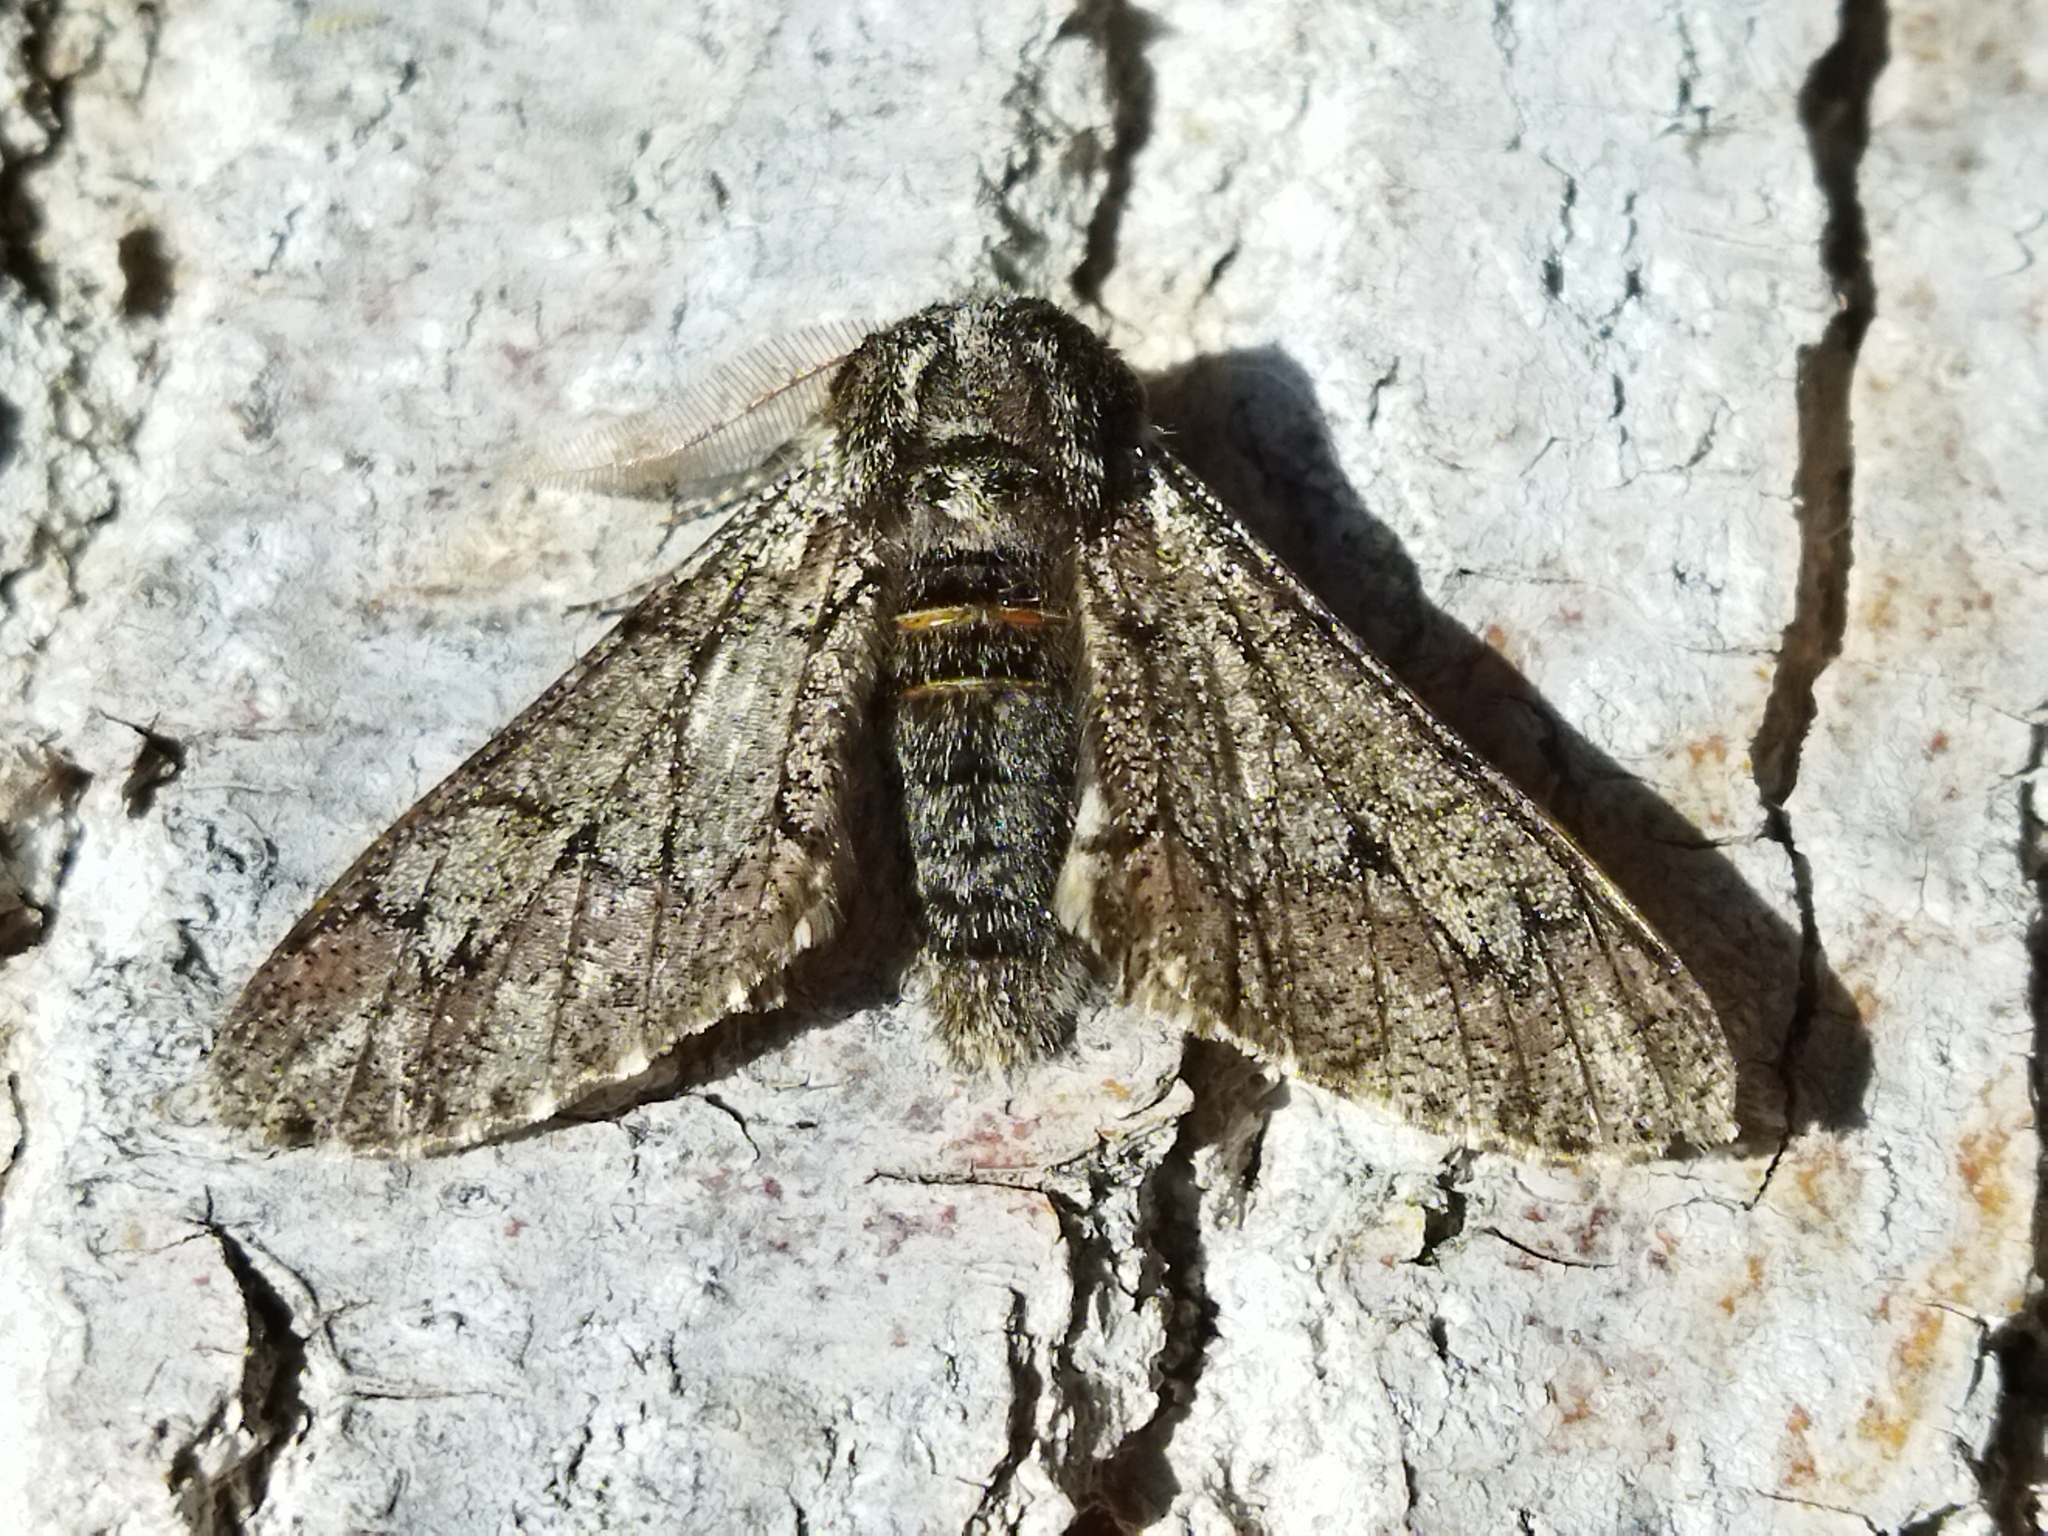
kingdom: Animalia
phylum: Arthropoda
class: Insecta
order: Lepidoptera
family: Geometridae
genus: Biston
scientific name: Biston strataria
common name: Oak beauty
